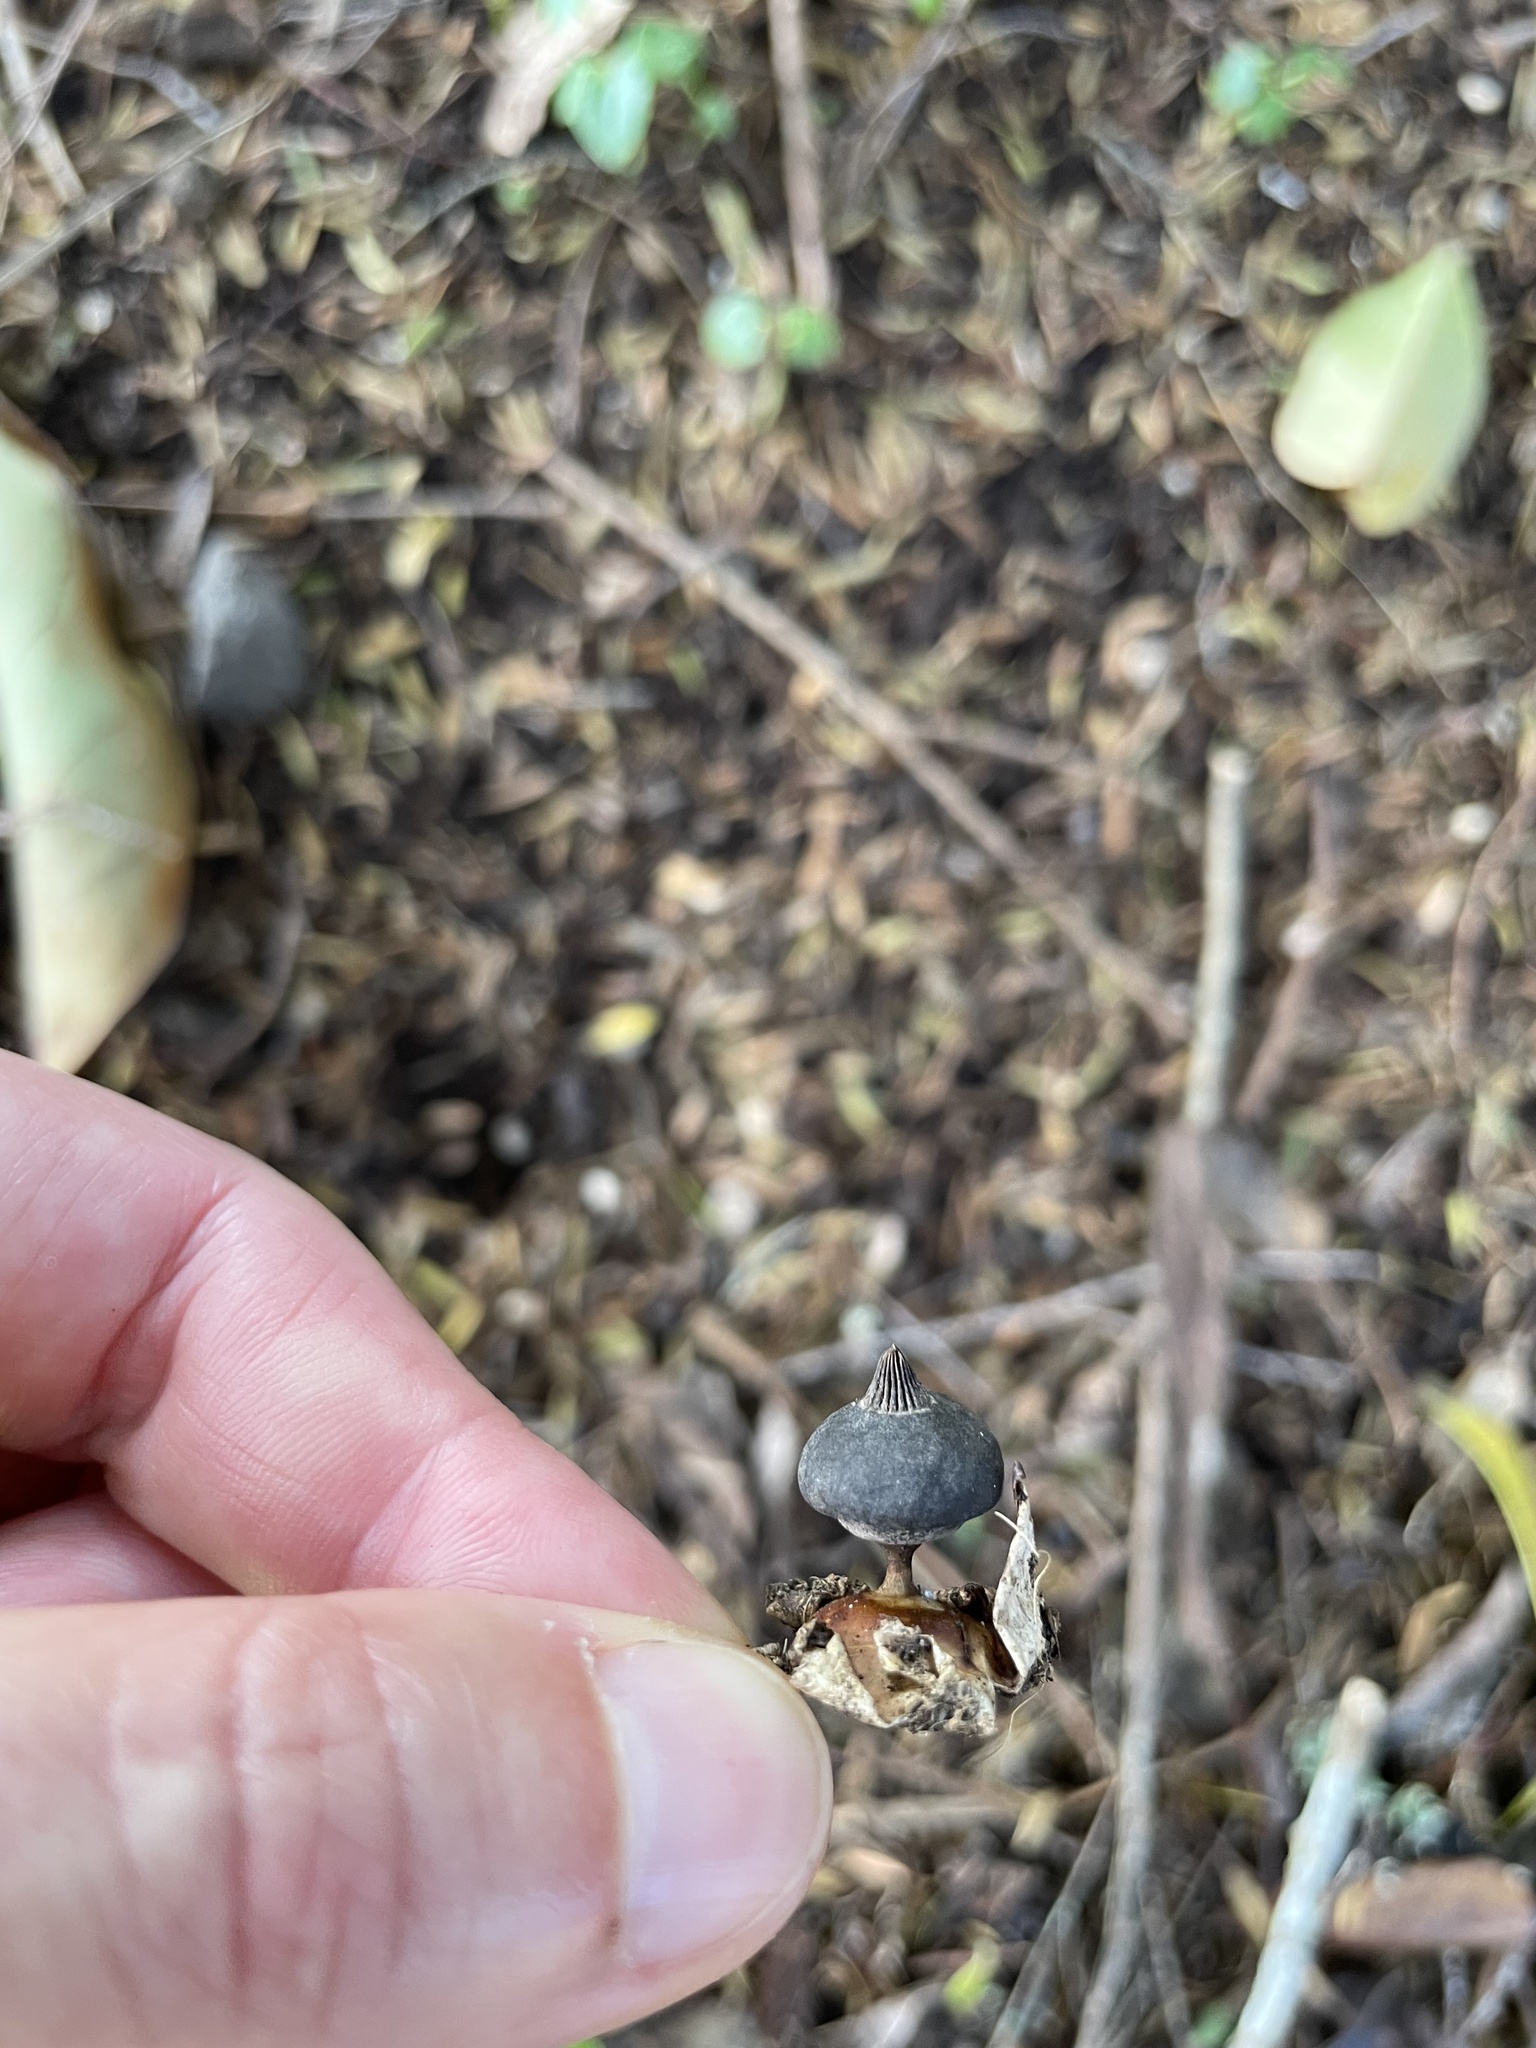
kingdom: Fungi
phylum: Basidiomycota
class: Agaricomycetes
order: Geastrales
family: Geastraceae
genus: Geastrum
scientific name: Geastrum pectinatum
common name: Beaked earthstar
